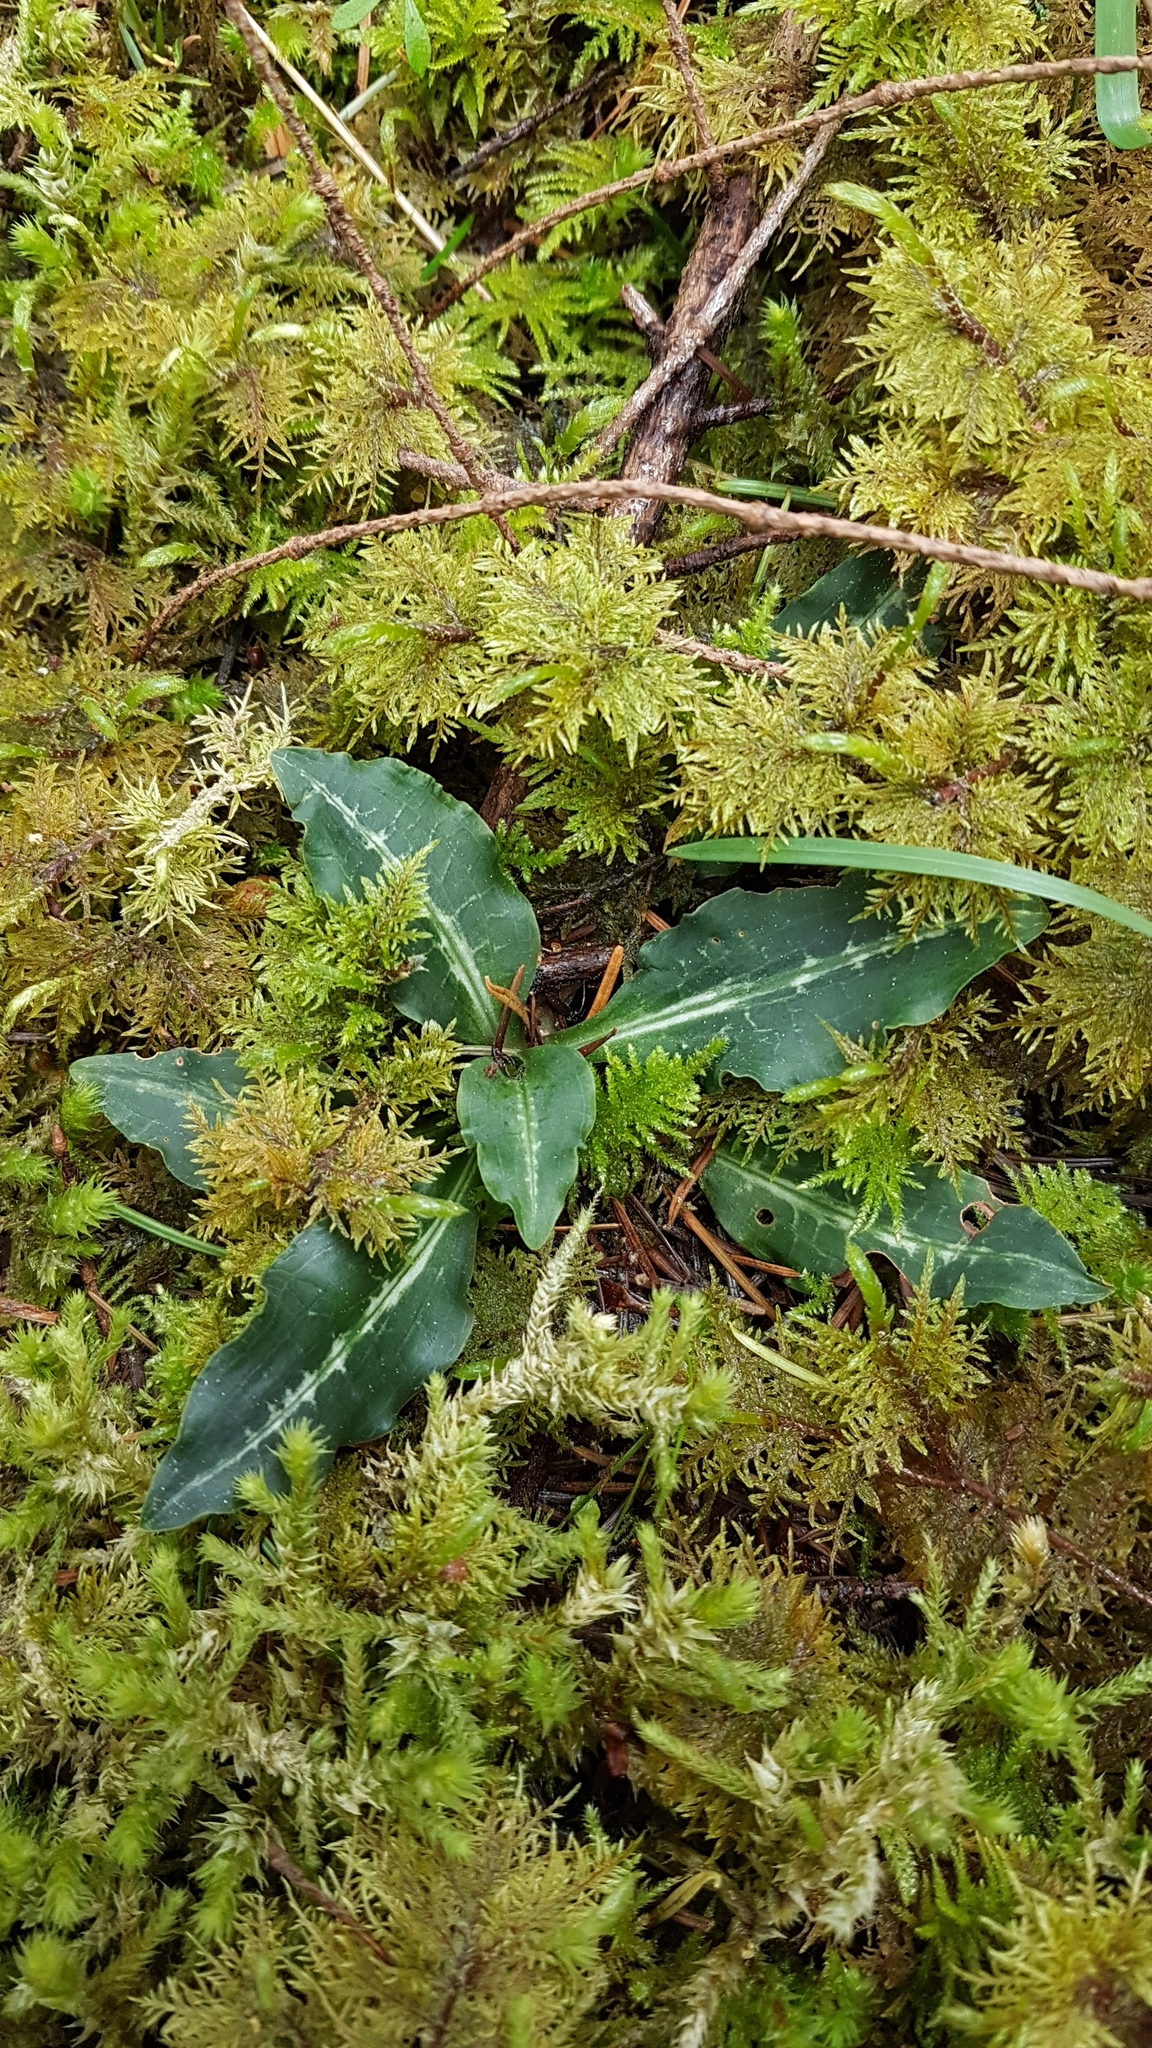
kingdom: Plantae
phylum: Tracheophyta
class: Liliopsida
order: Asparagales
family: Orchidaceae
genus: Goodyera
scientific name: Goodyera oblongifolia
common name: Giant rattlesnake-plantain
